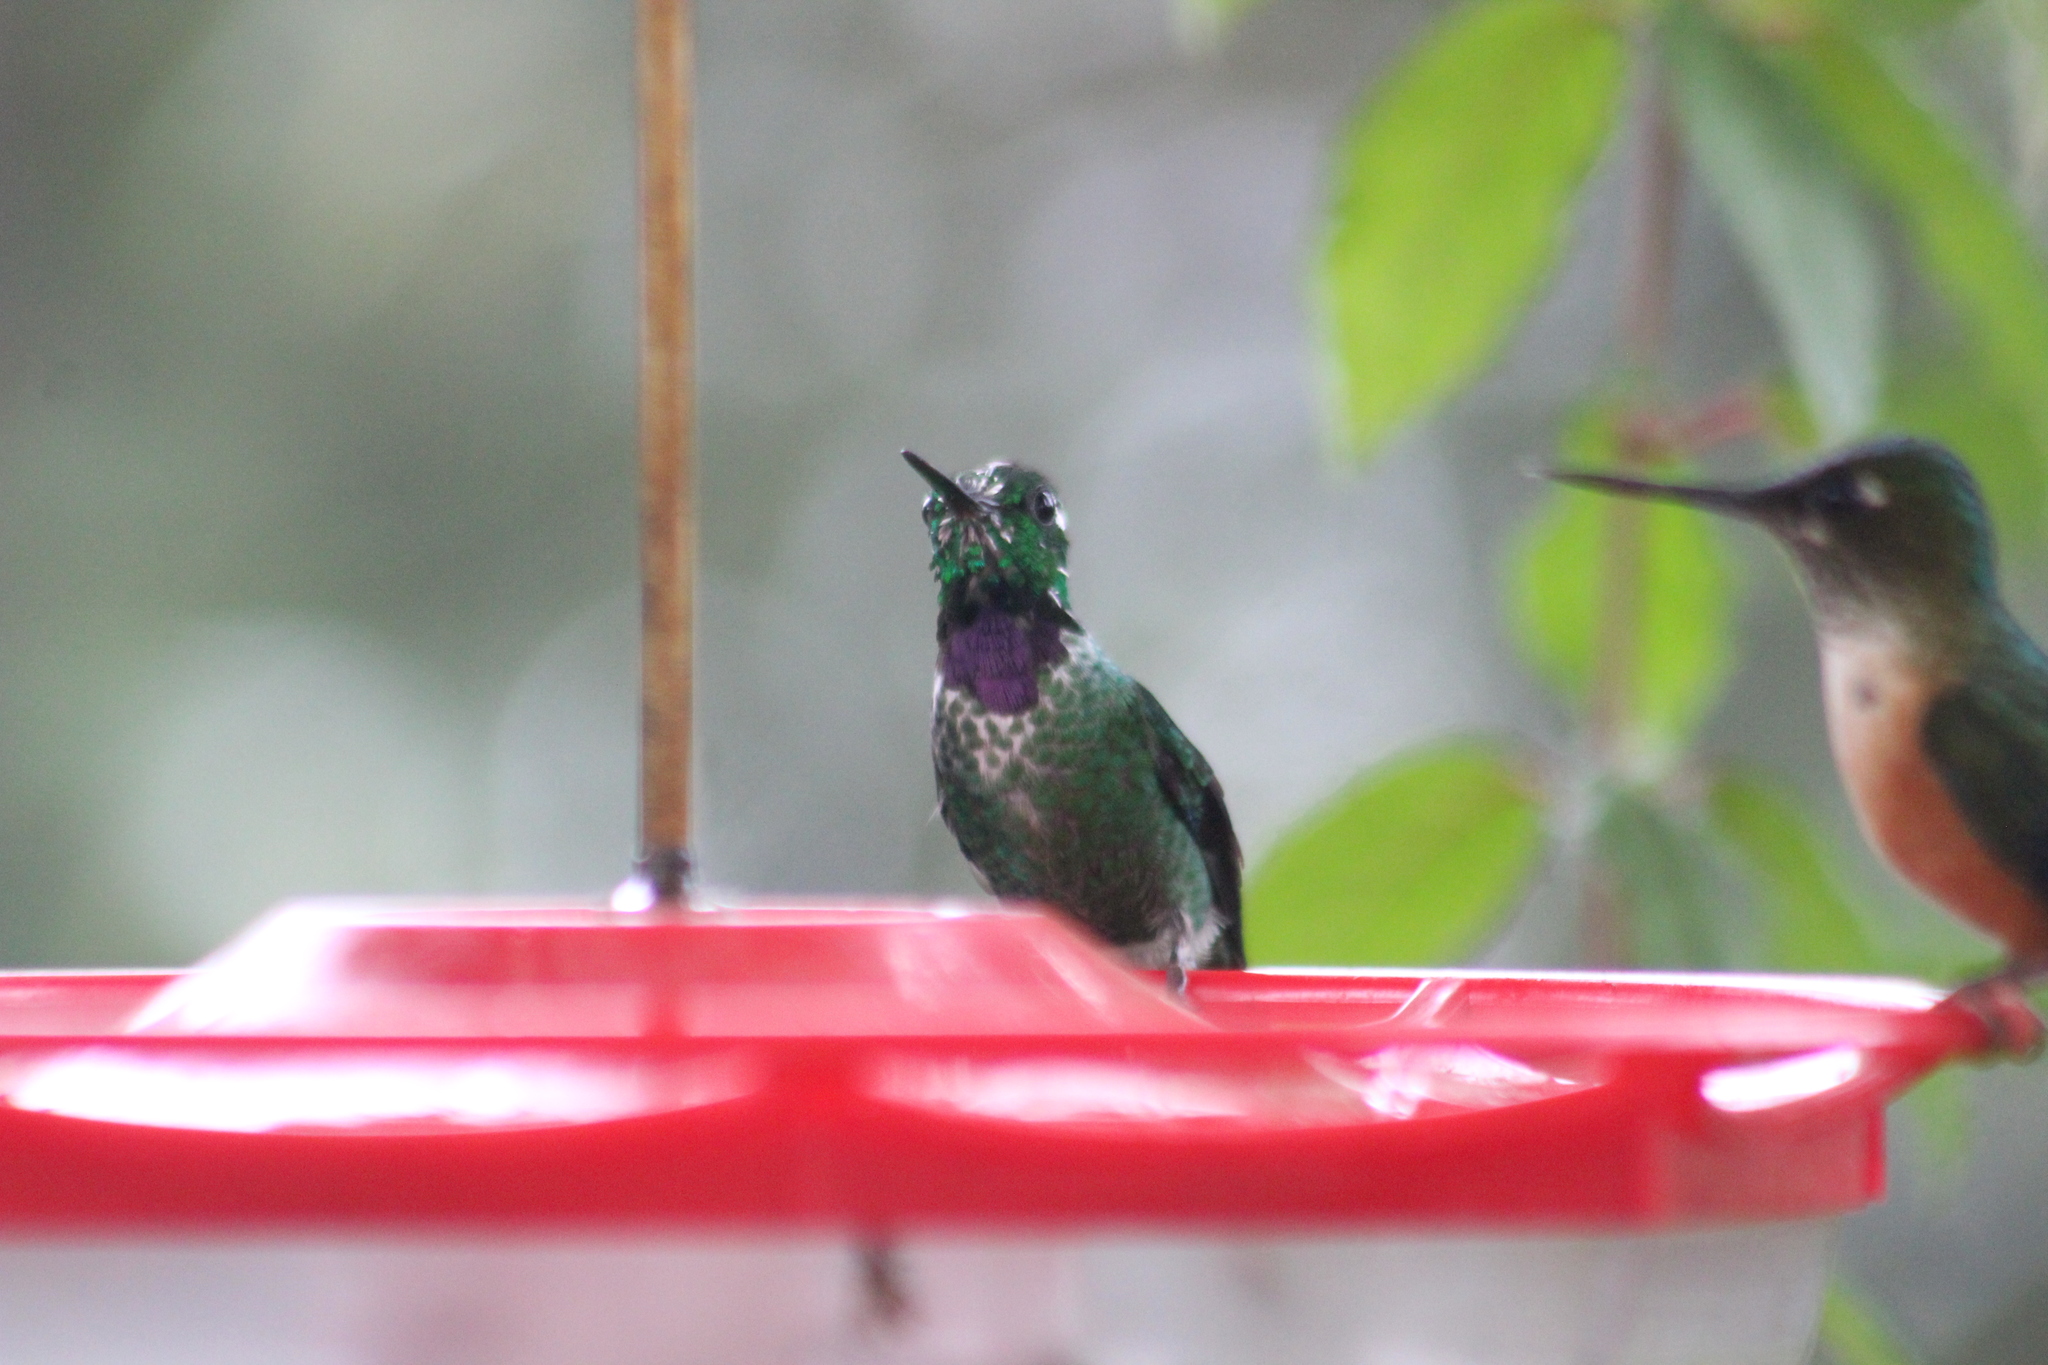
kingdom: Animalia
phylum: Chordata
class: Aves
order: Apodiformes
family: Trochilidae
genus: Urosticte
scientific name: Urosticte benjamini
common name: Purple-bibbed whitetip
